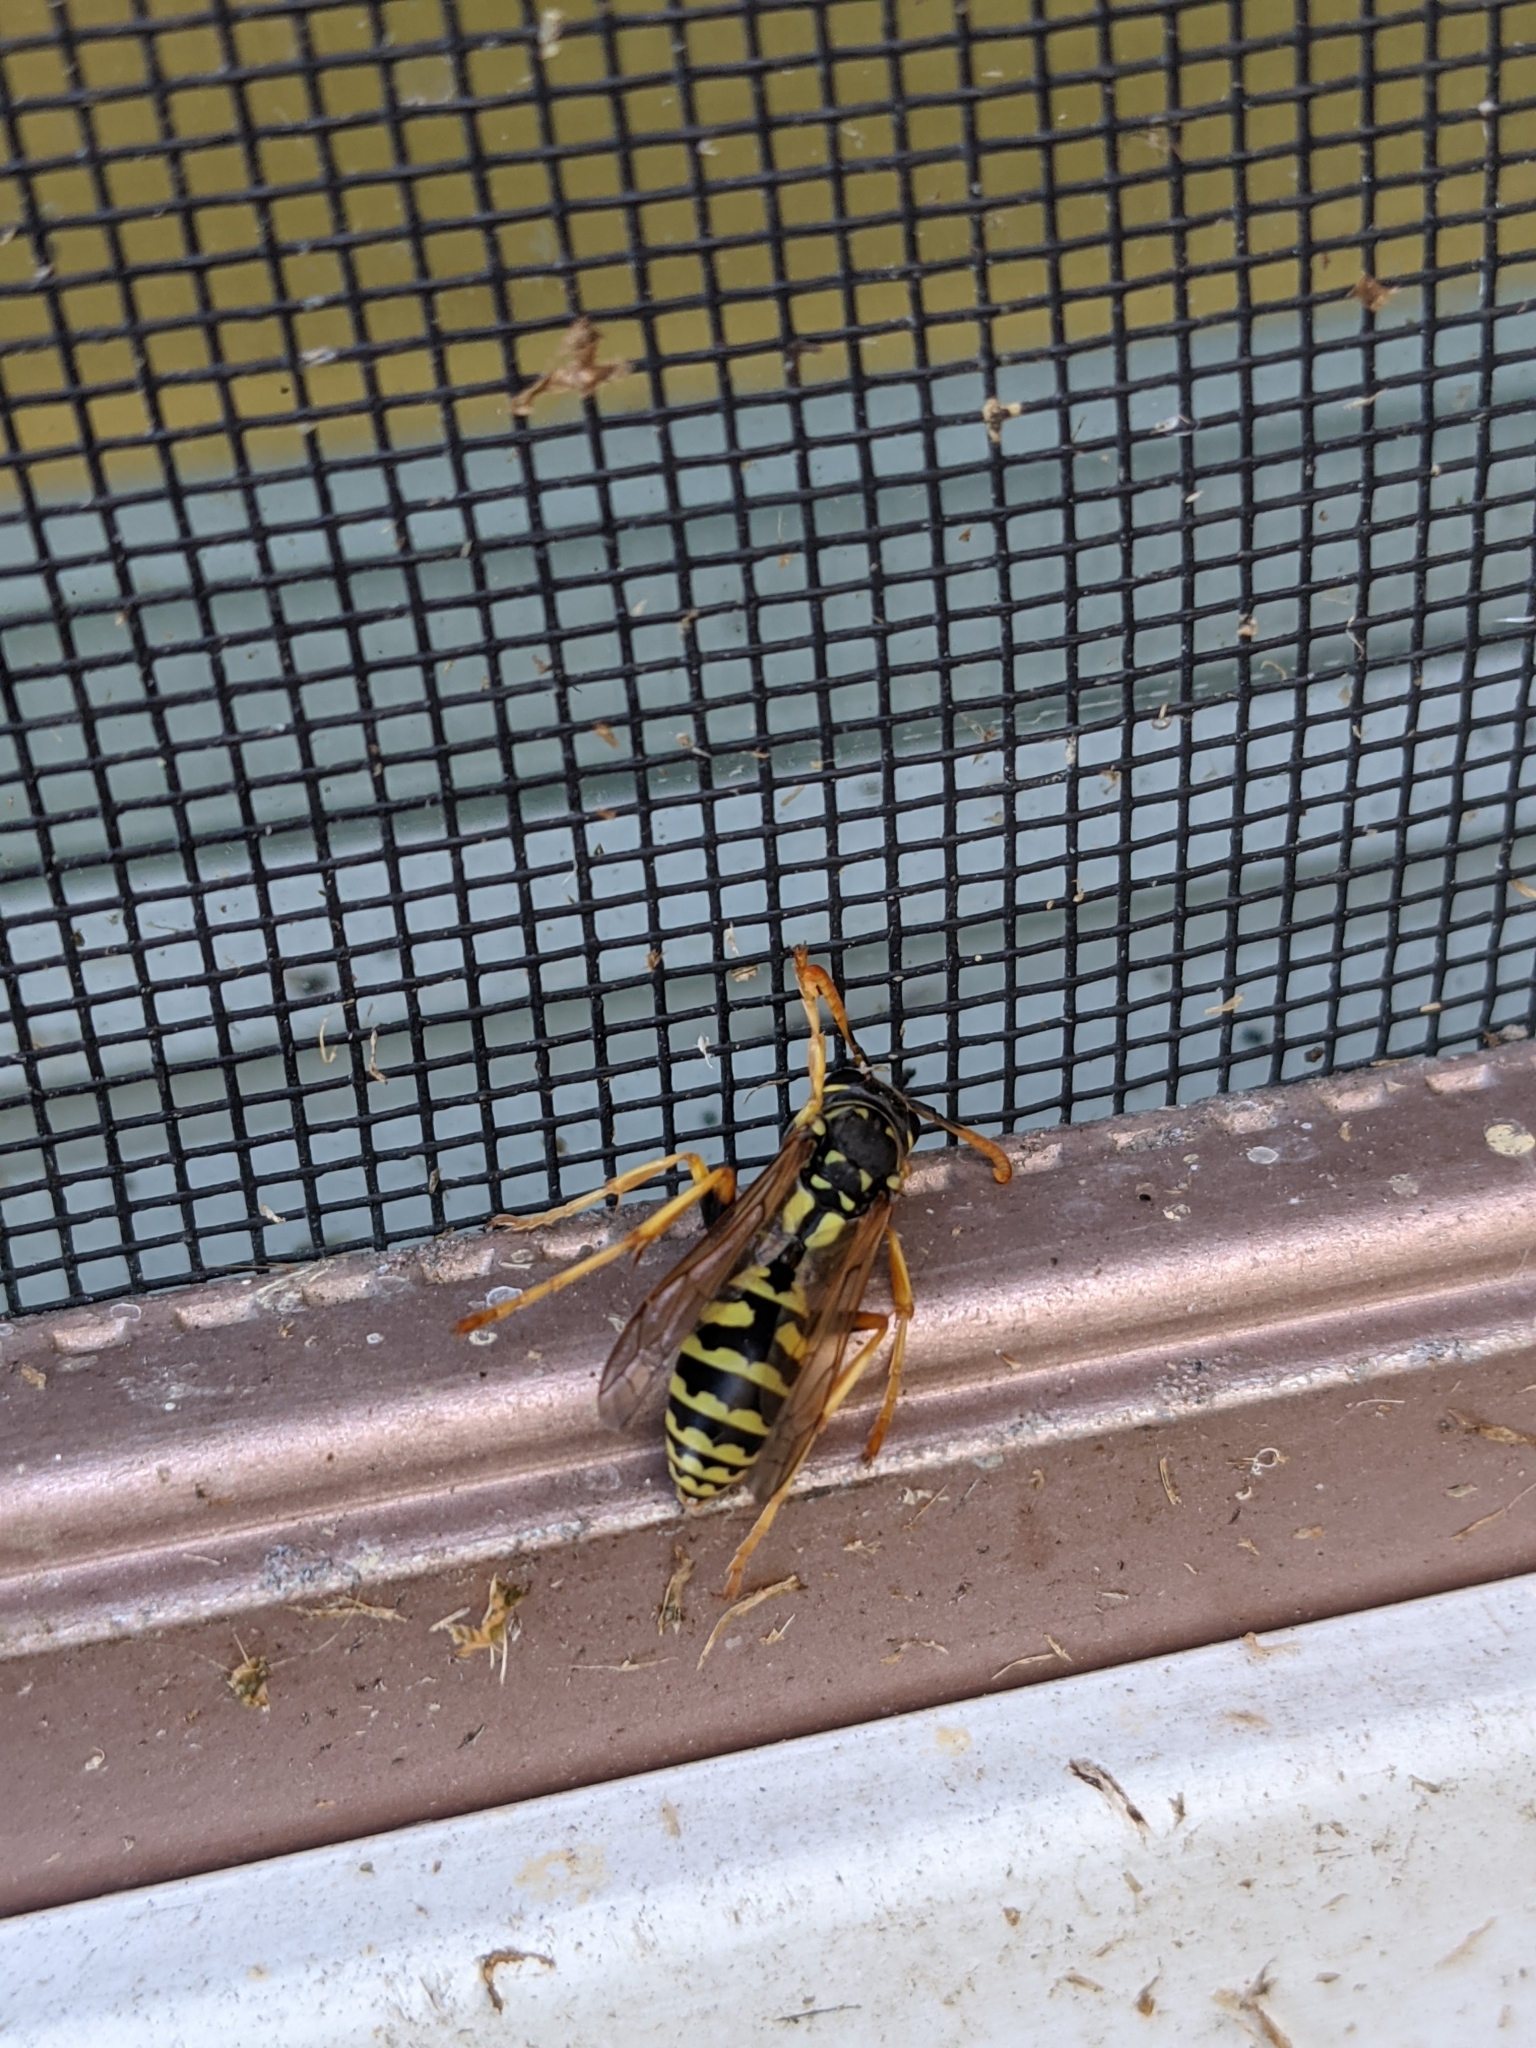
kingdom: Animalia
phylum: Arthropoda
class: Insecta
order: Hymenoptera
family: Eumenidae
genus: Polistes
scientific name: Polistes dominula
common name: Paper wasp
